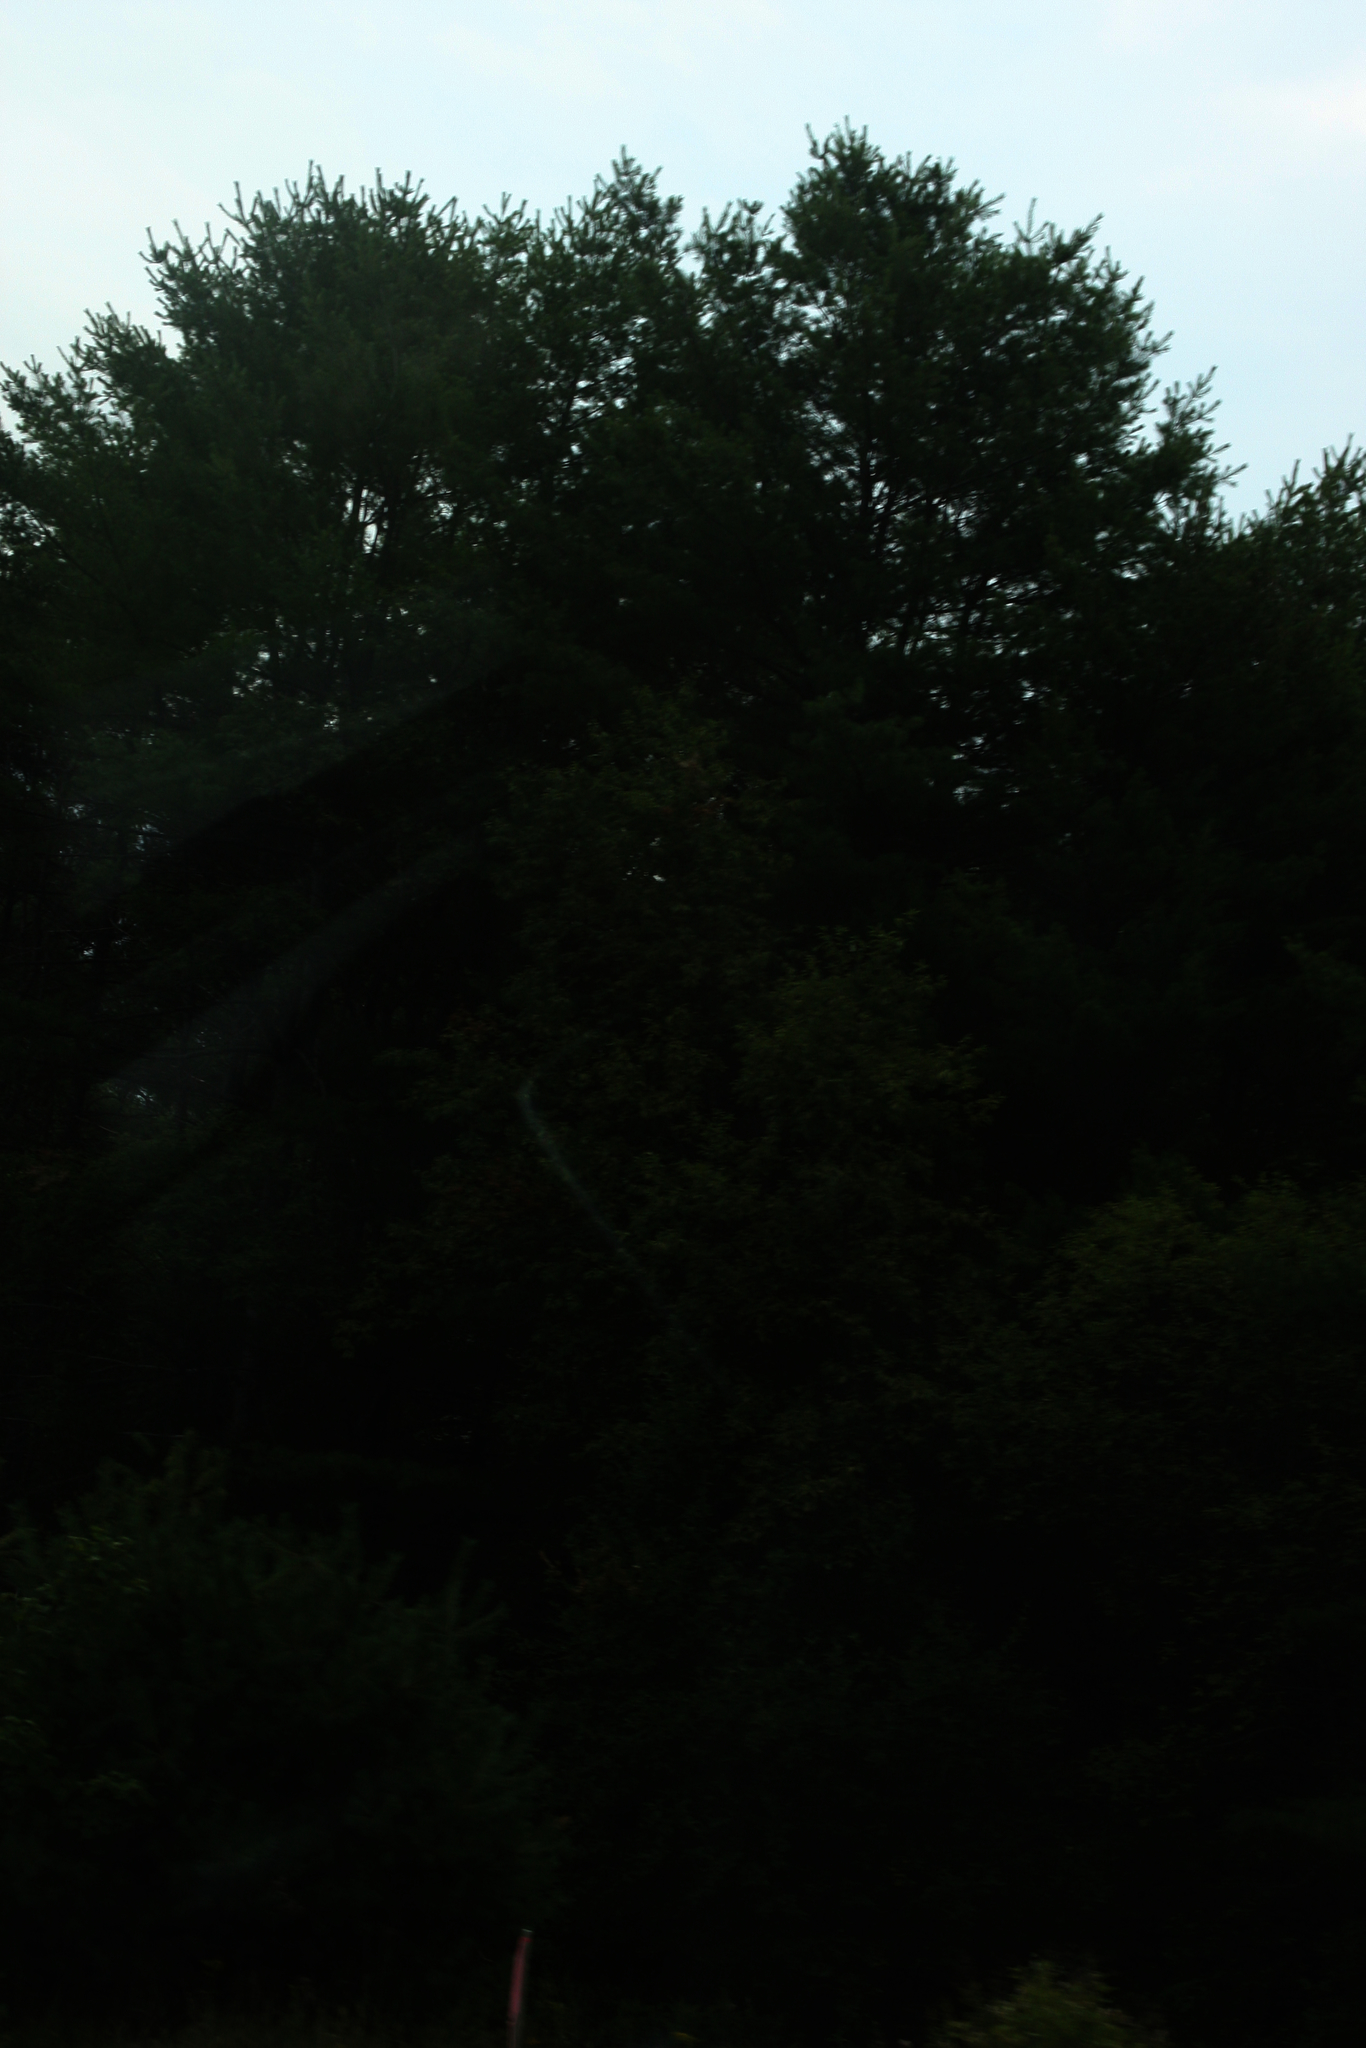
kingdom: Plantae
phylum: Tracheophyta
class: Pinopsida
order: Pinales
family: Pinaceae
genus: Pinus
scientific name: Pinus strobus
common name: Weymouth pine
